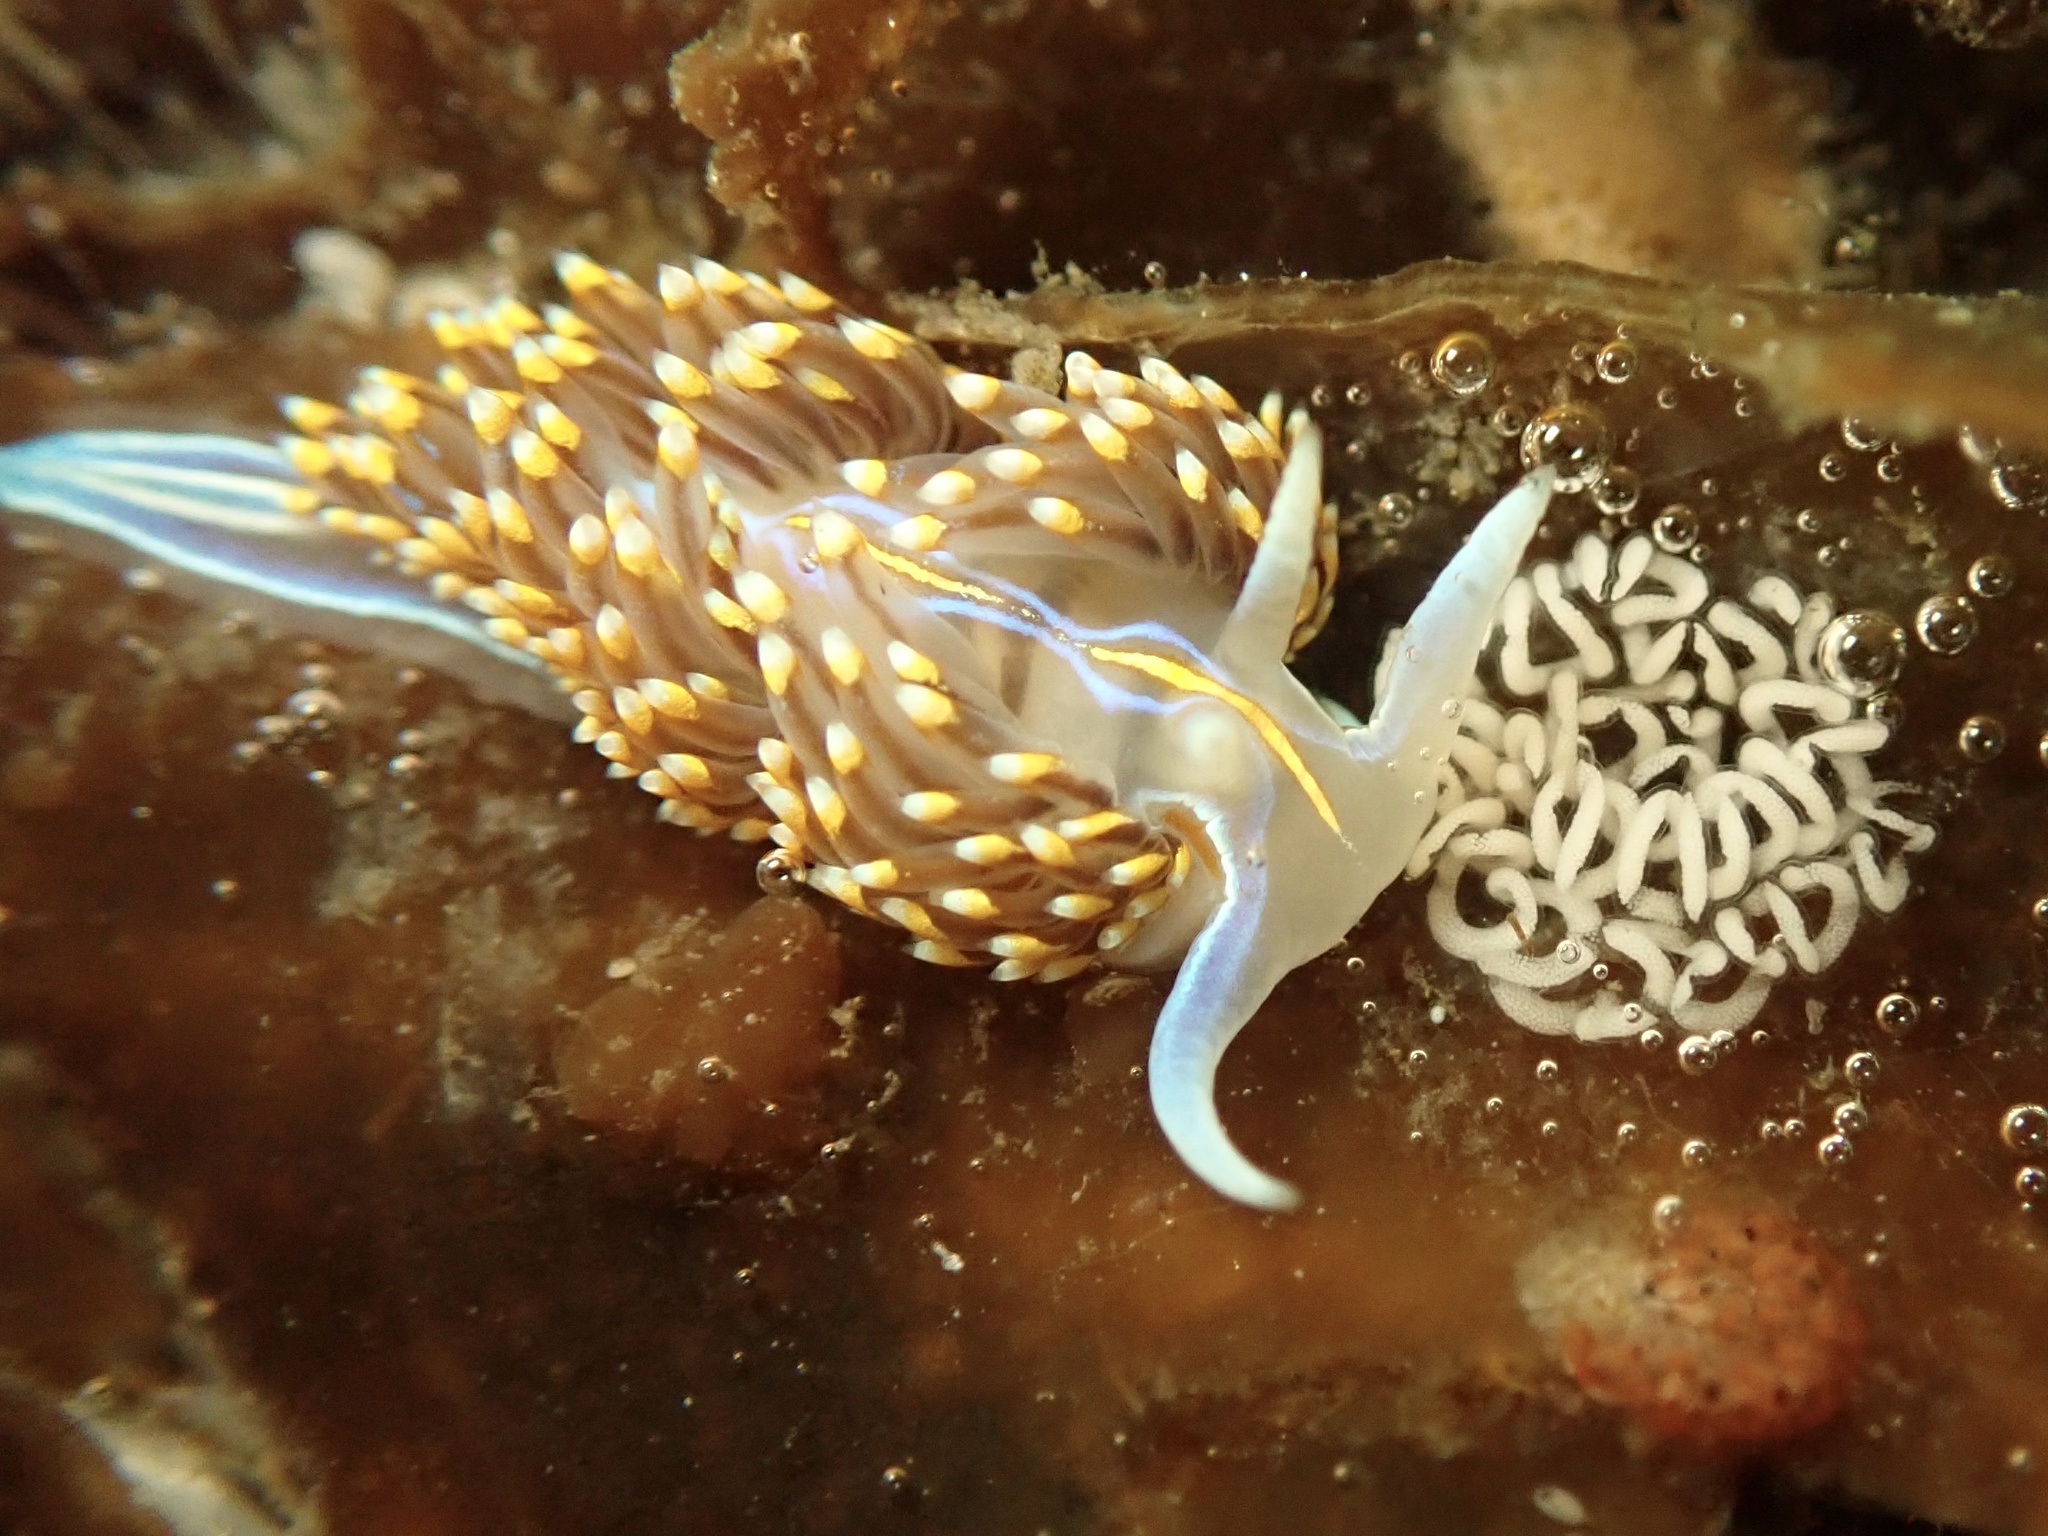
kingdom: Animalia
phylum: Mollusca
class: Gastropoda
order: Nudibranchia
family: Myrrhinidae
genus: Hermissenda
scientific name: Hermissenda opalescens
